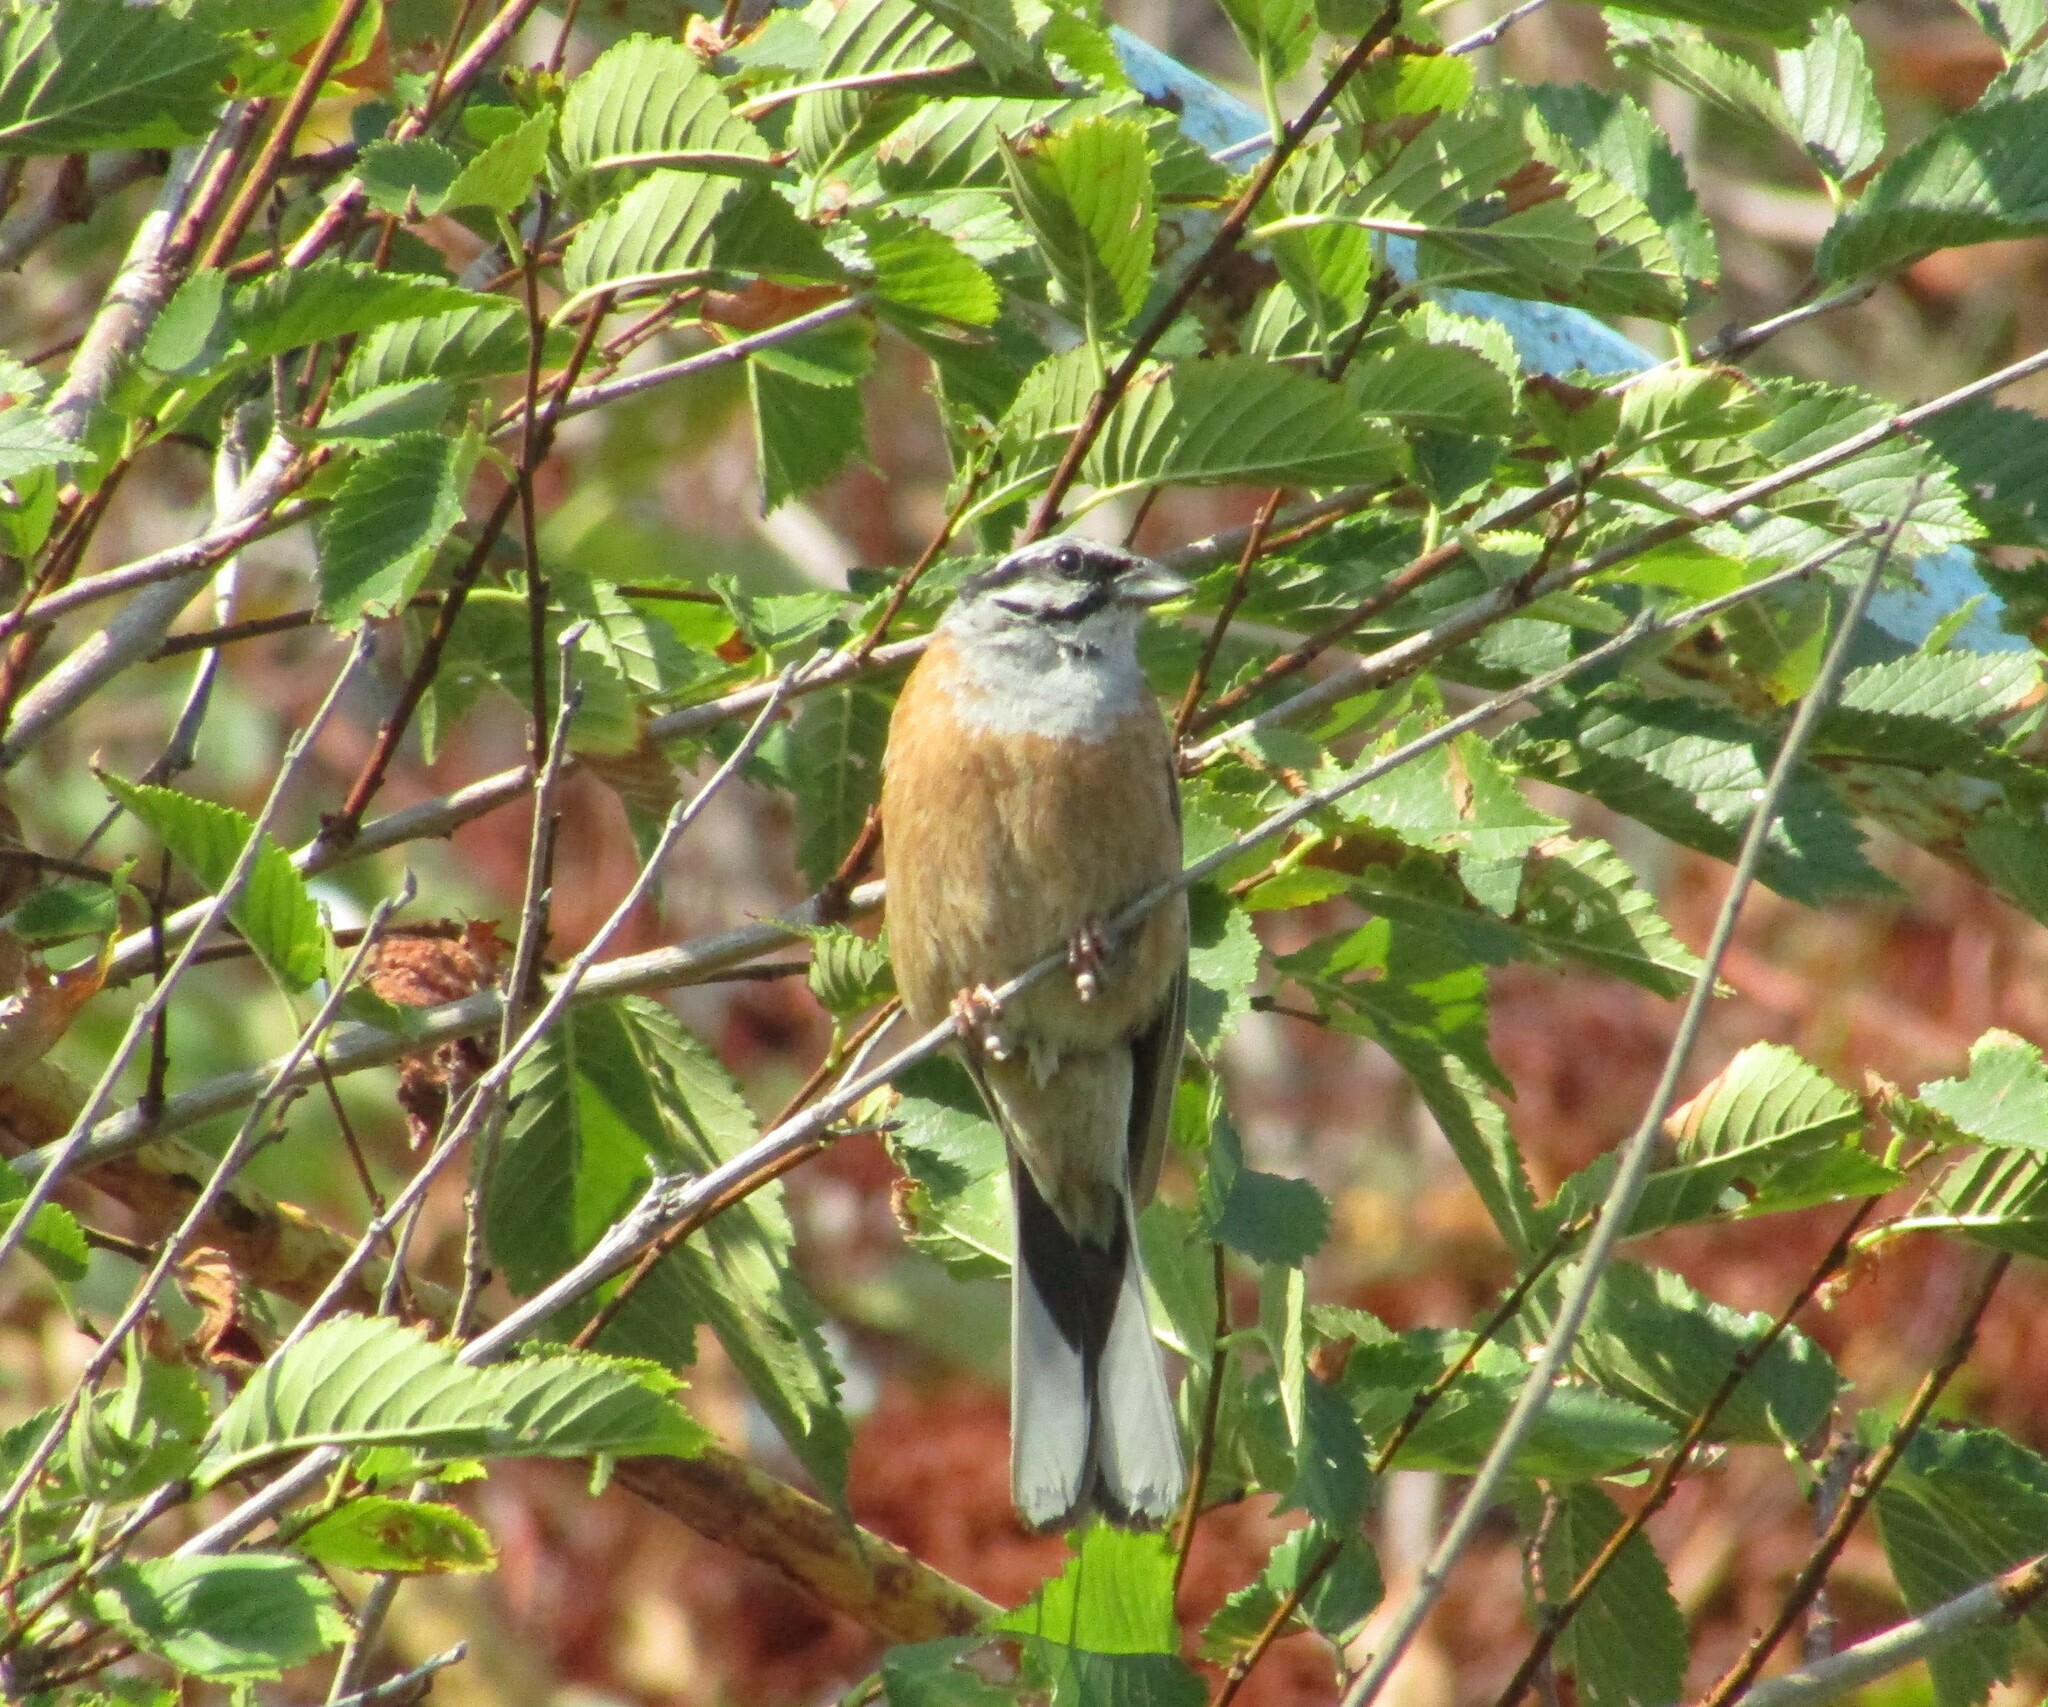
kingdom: Animalia
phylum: Chordata
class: Aves
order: Passeriformes
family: Emberizidae
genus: Emberiza
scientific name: Emberiza cia
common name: Rock bunting
